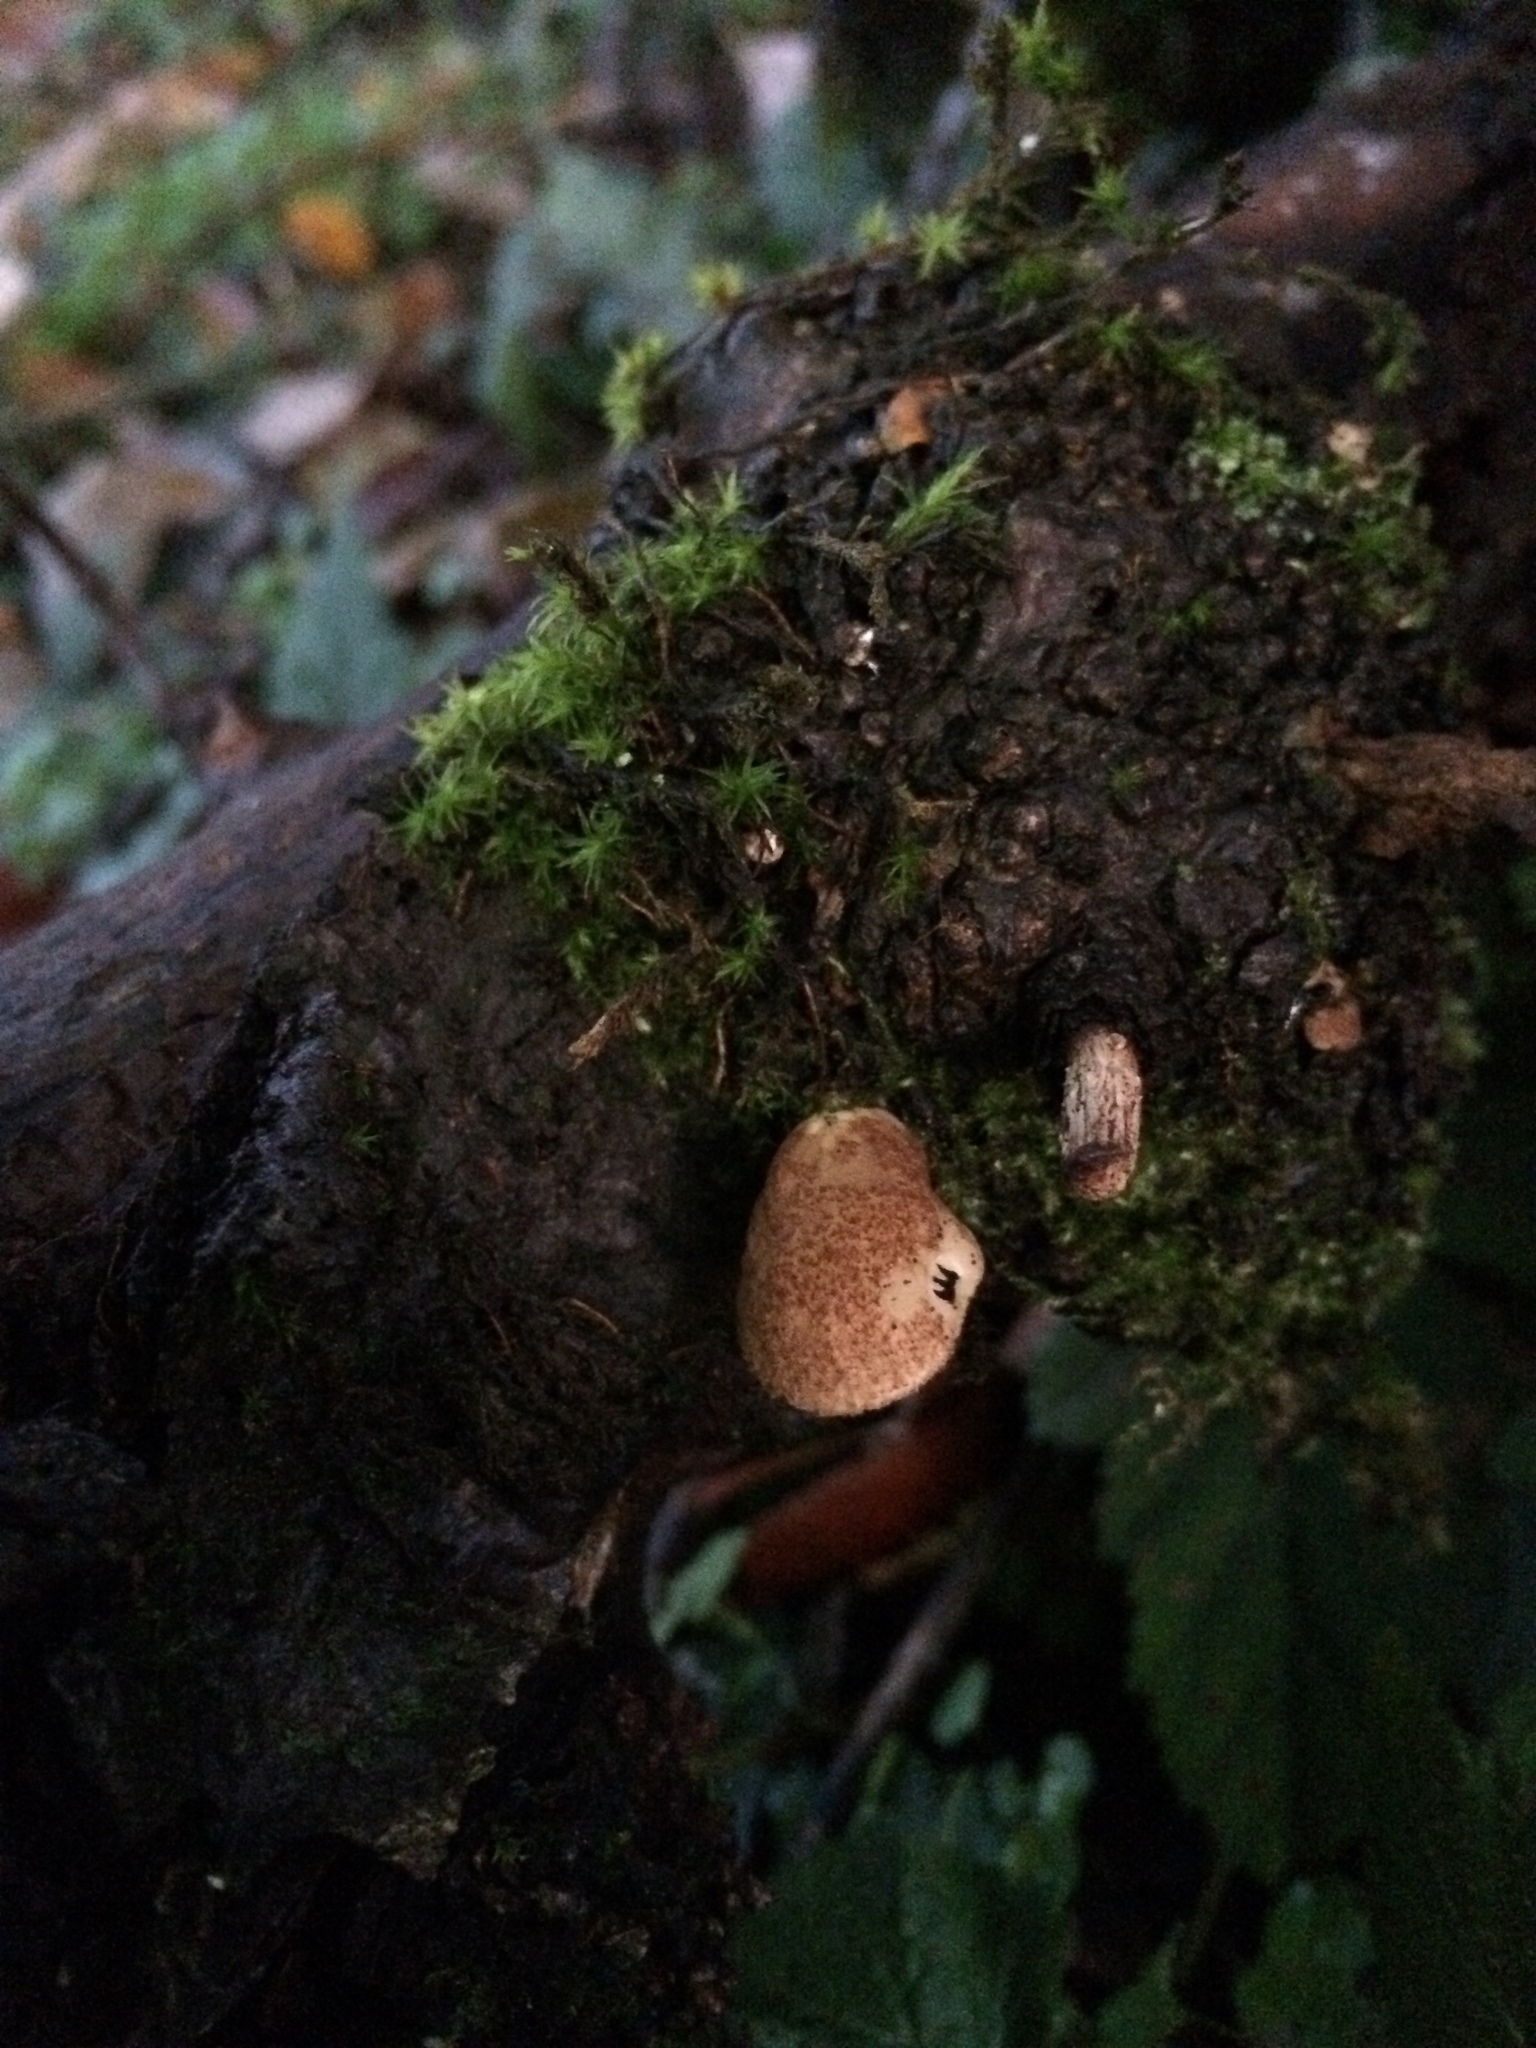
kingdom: Fungi
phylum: Basidiomycota
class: Agaricomycetes
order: Agaricales
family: Crepidotaceae
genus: Crepidotus
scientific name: Crepidotus calolepis
